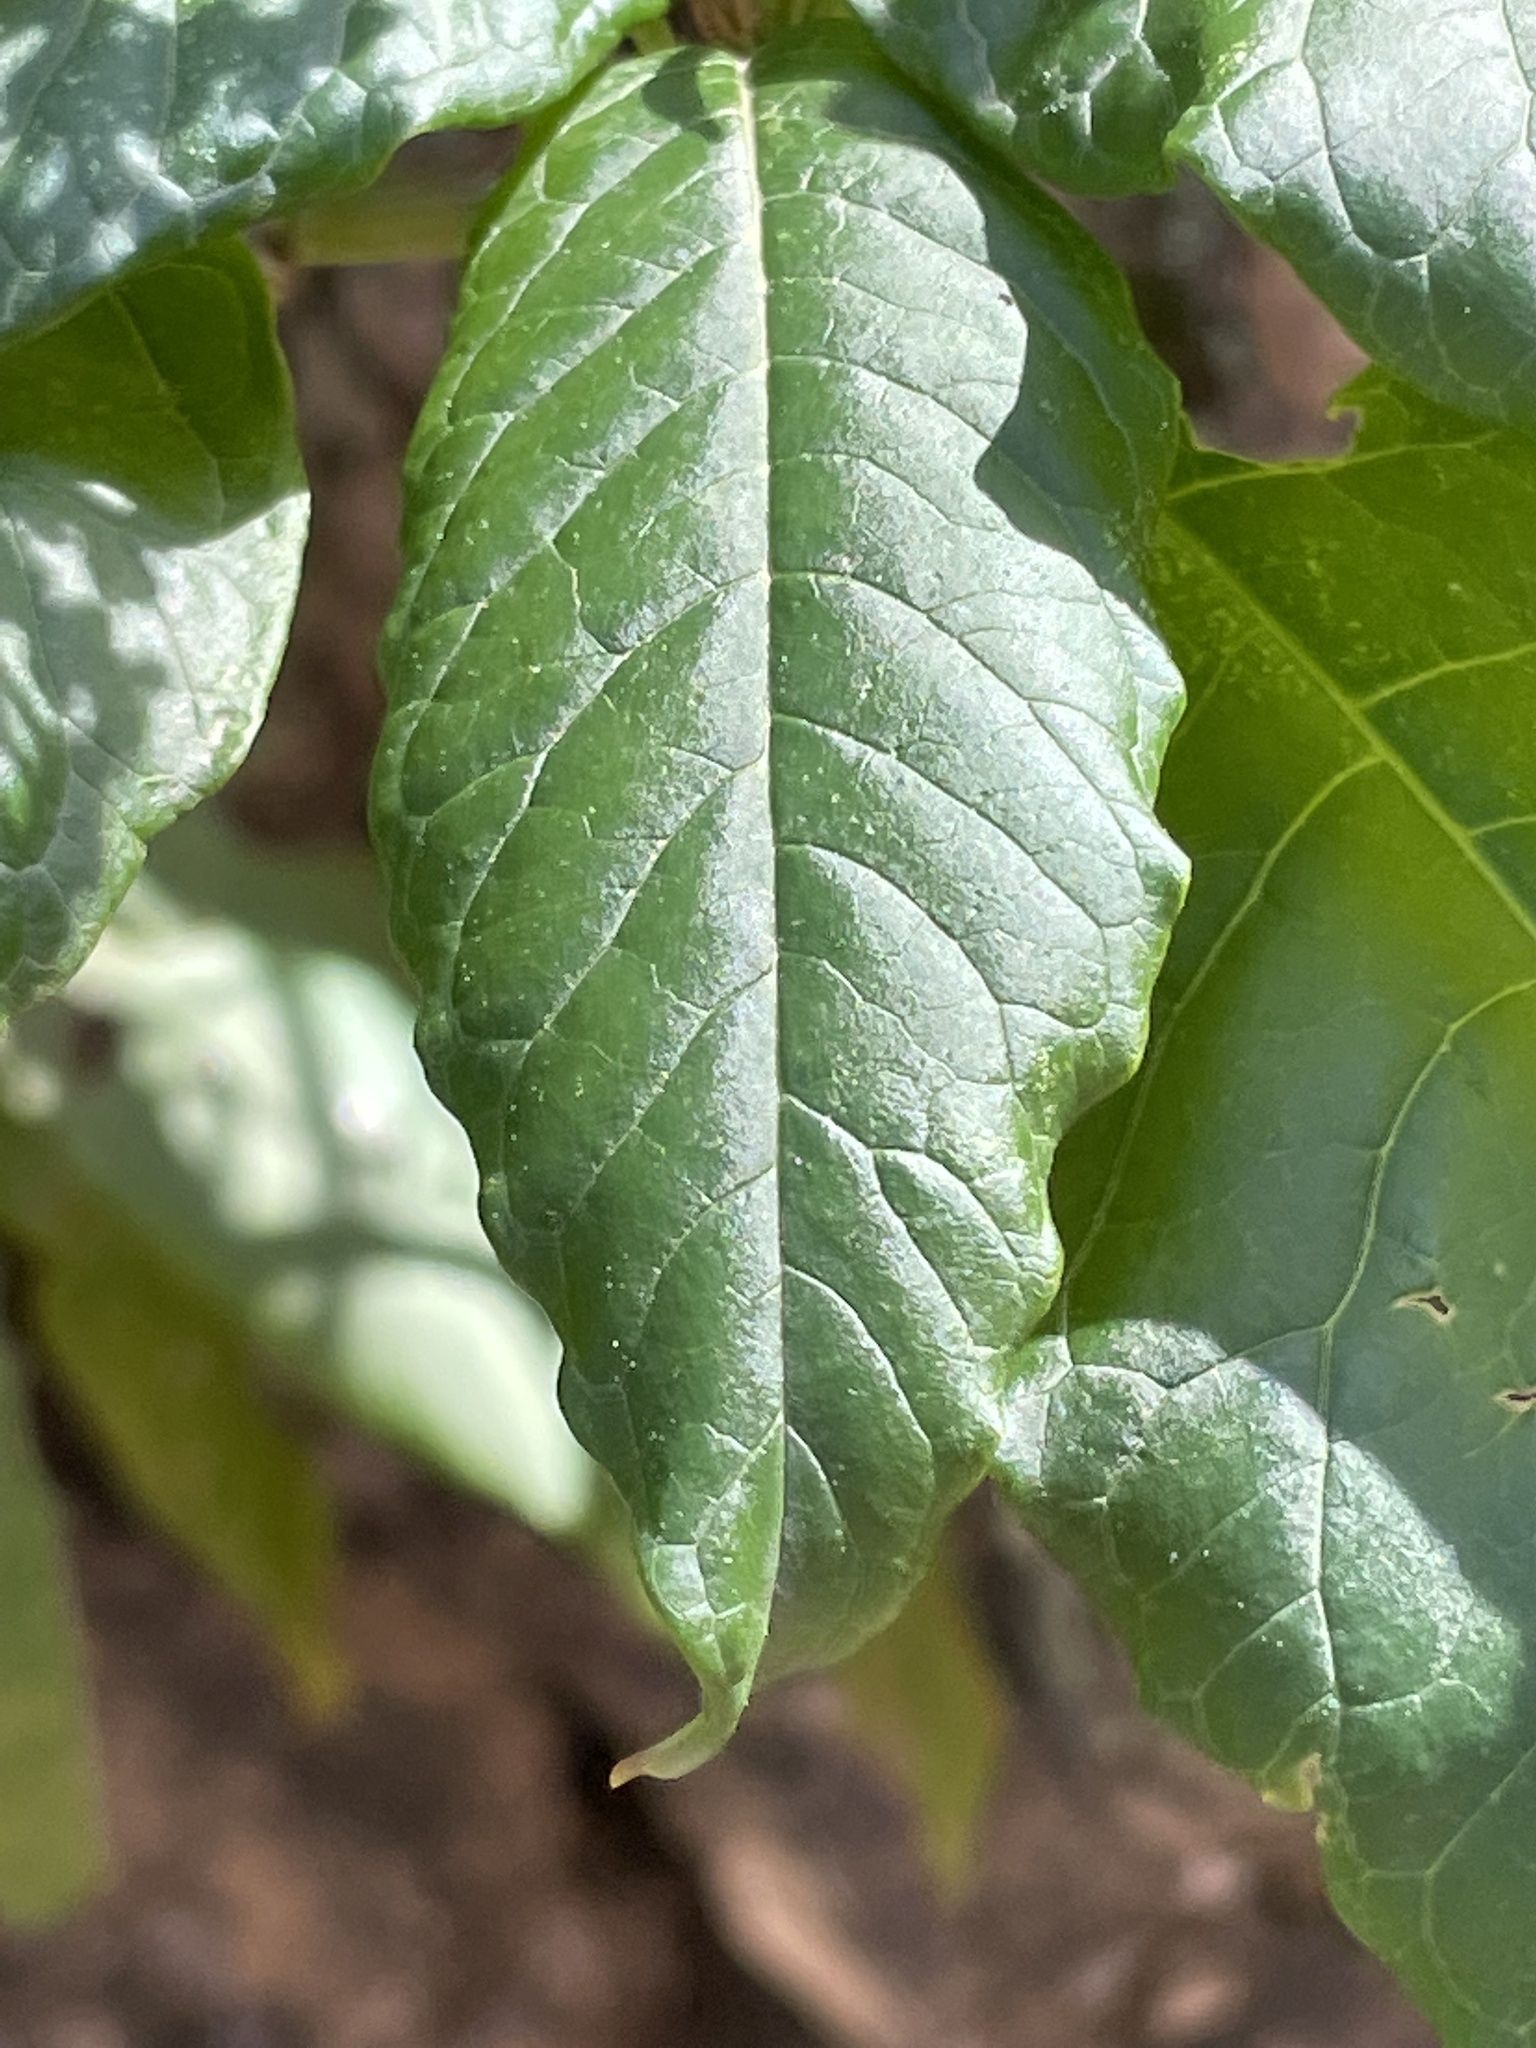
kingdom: Plantae
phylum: Tracheophyta
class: Magnoliopsida
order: Caryophyllales
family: Phytolaccaceae
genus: Phytolacca
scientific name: Phytolacca americana
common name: American pokeweed
